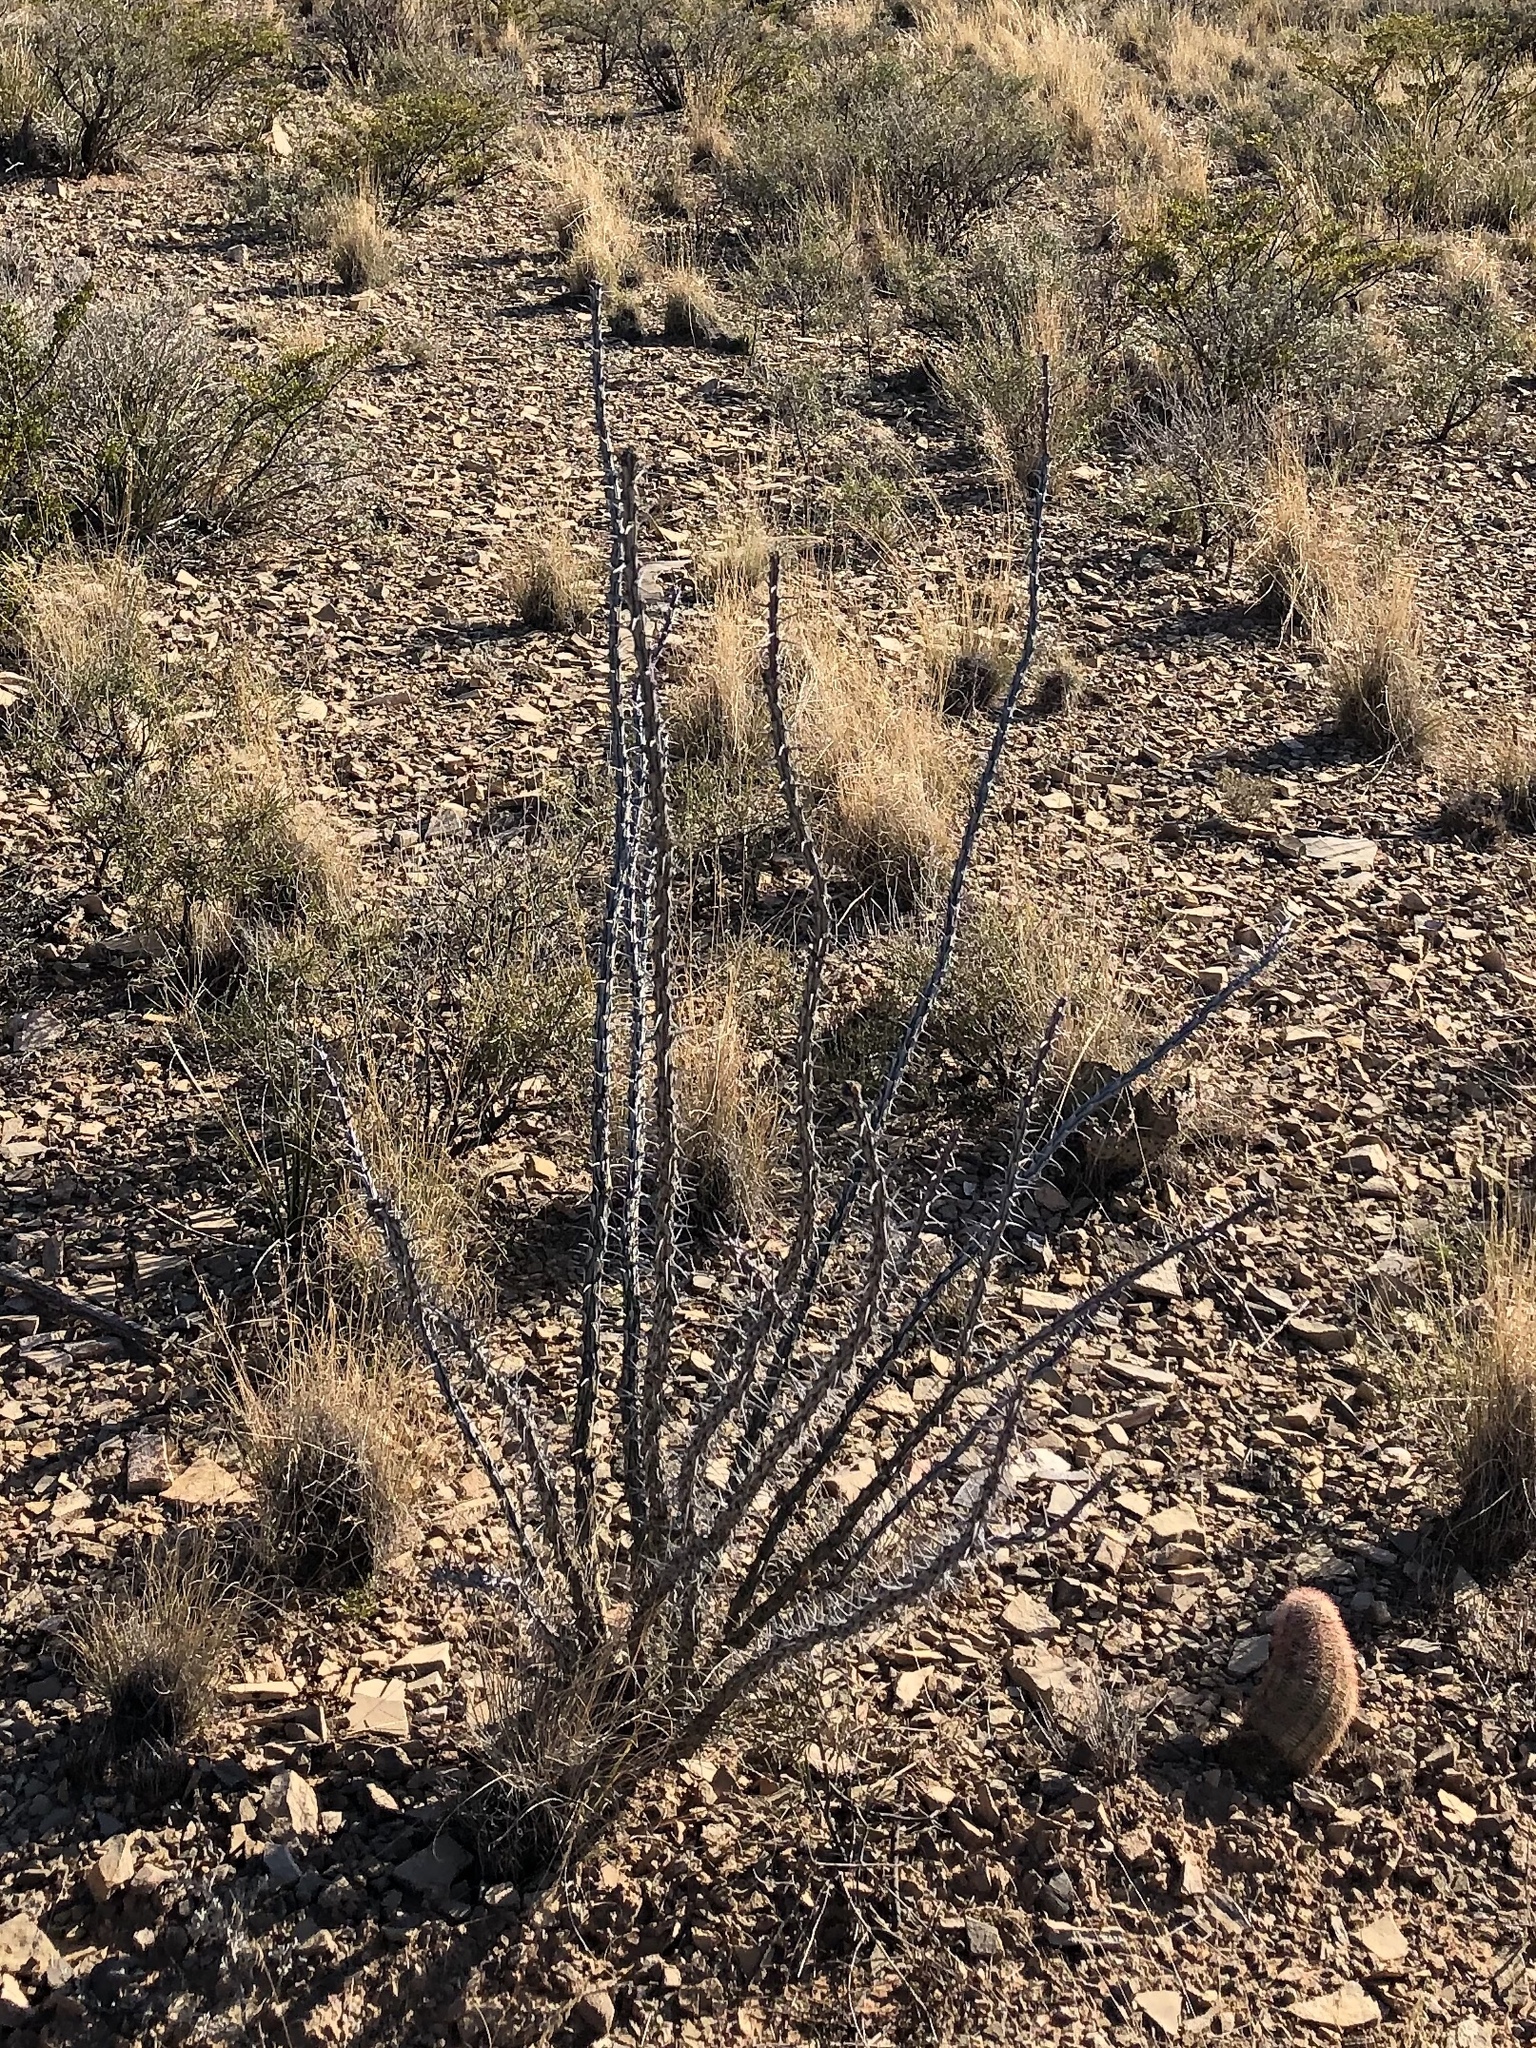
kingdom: Plantae
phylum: Tracheophyta
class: Magnoliopsida
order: Ericales
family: Fouquieriaceae
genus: Fouquieria
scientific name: Fouquieria splendens
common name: Vine-cactus
